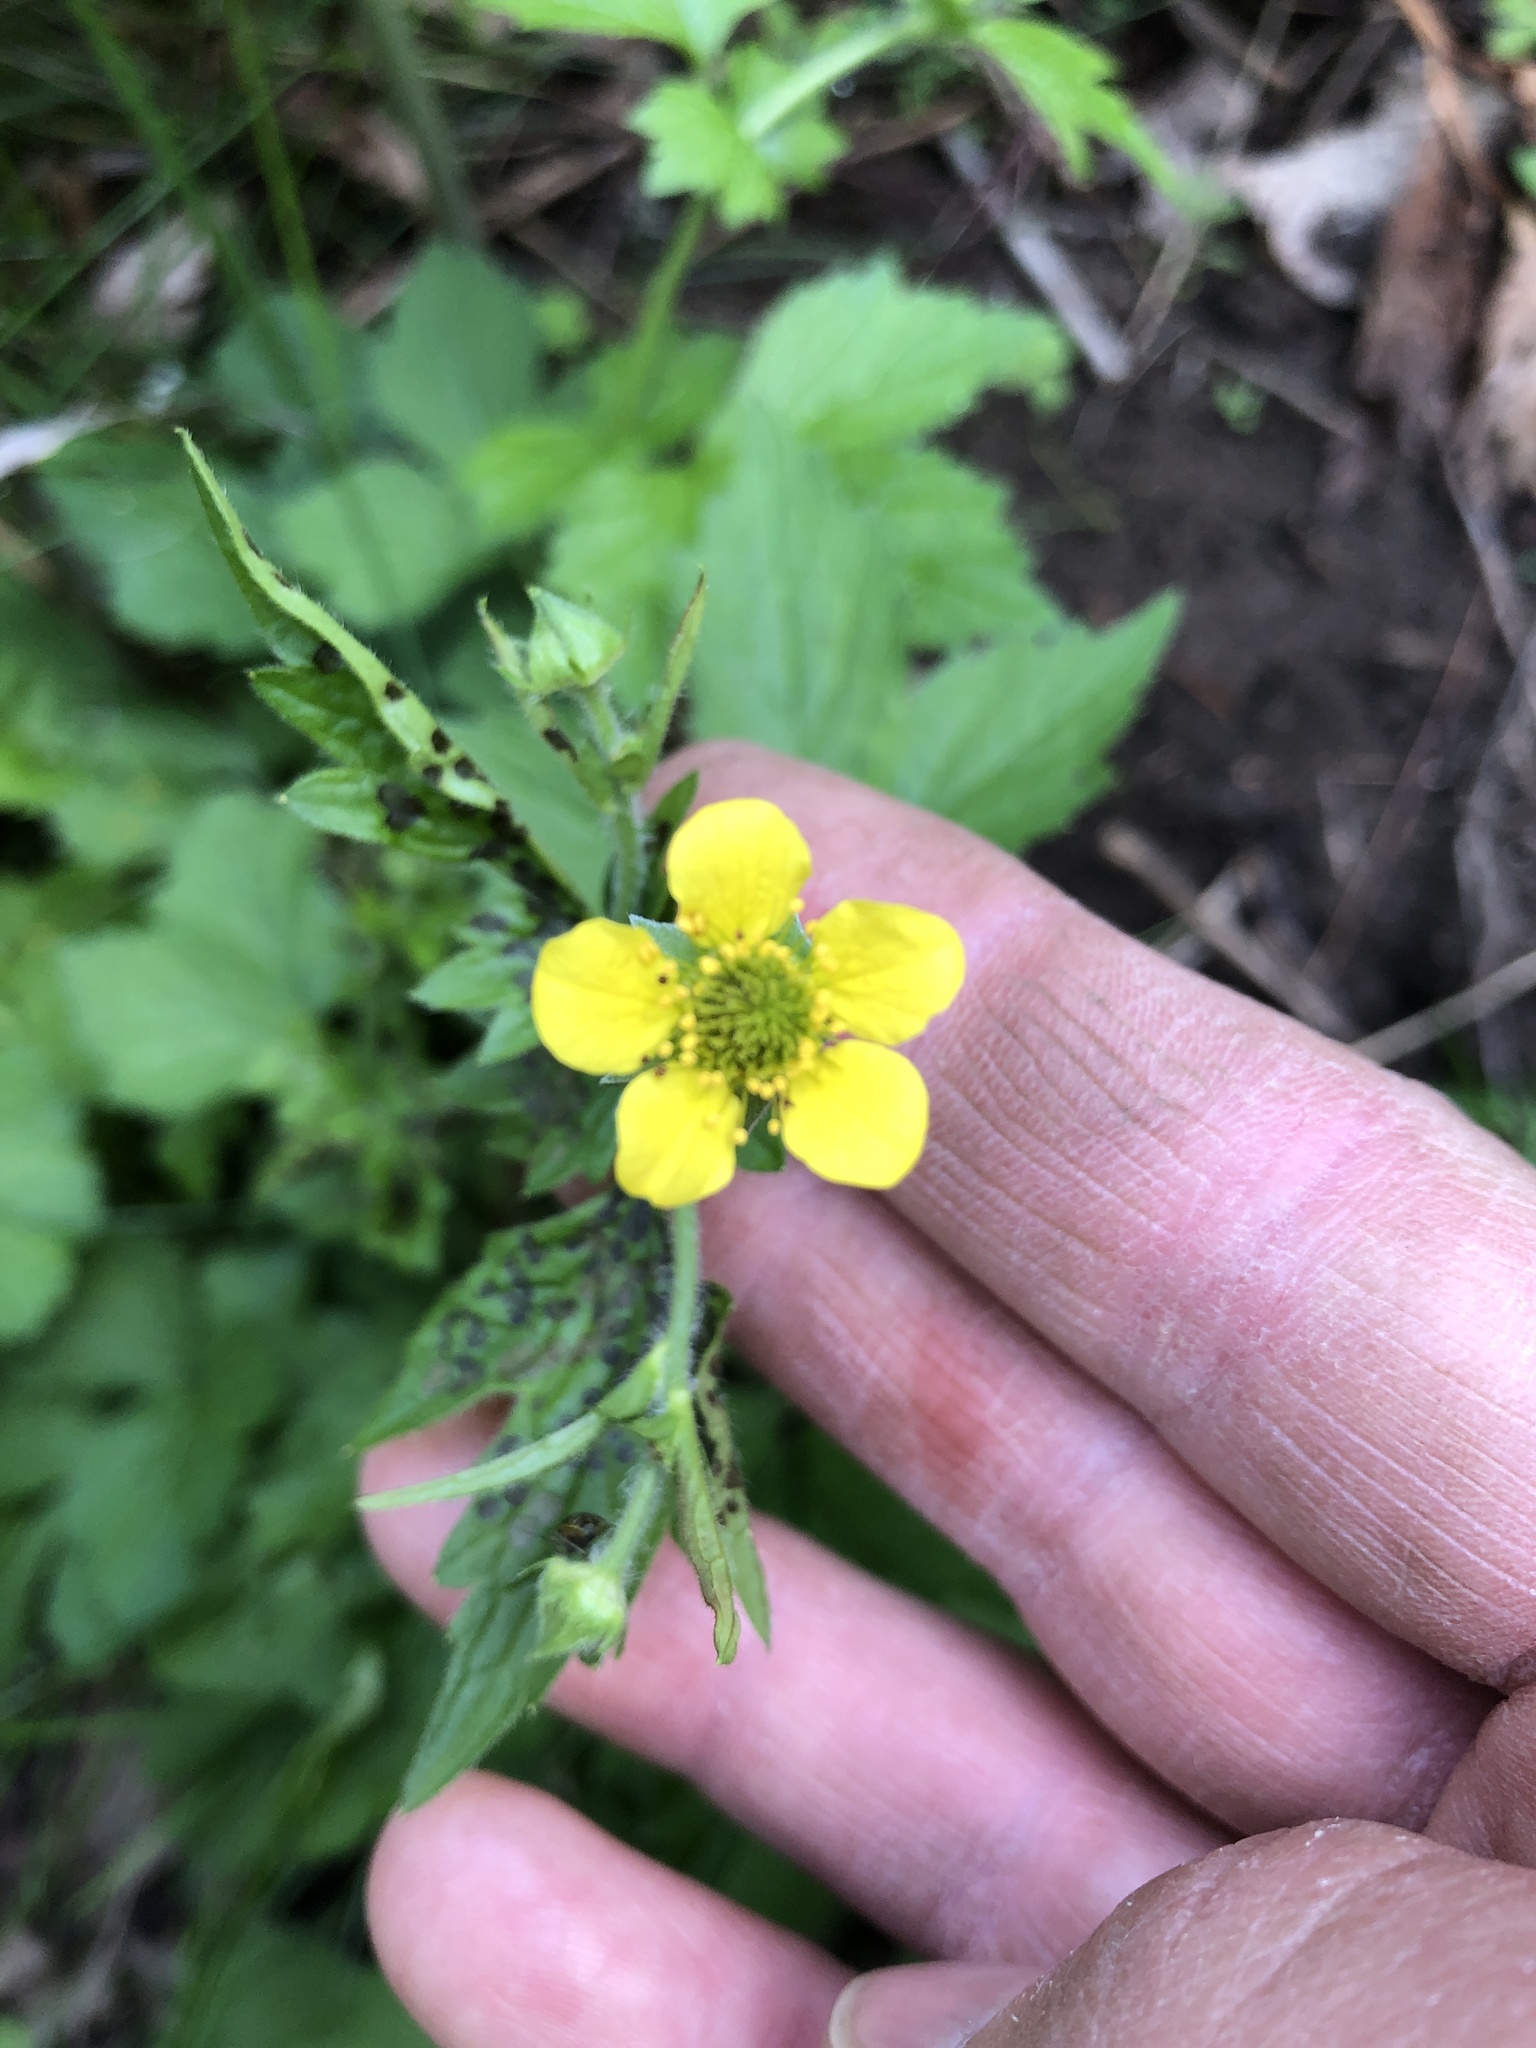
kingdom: Plantae
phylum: Tracheophyta
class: Magnoliopsida
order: Rosales
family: Rosaceae
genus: Geum
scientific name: Geum urbanum
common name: Wood avens
